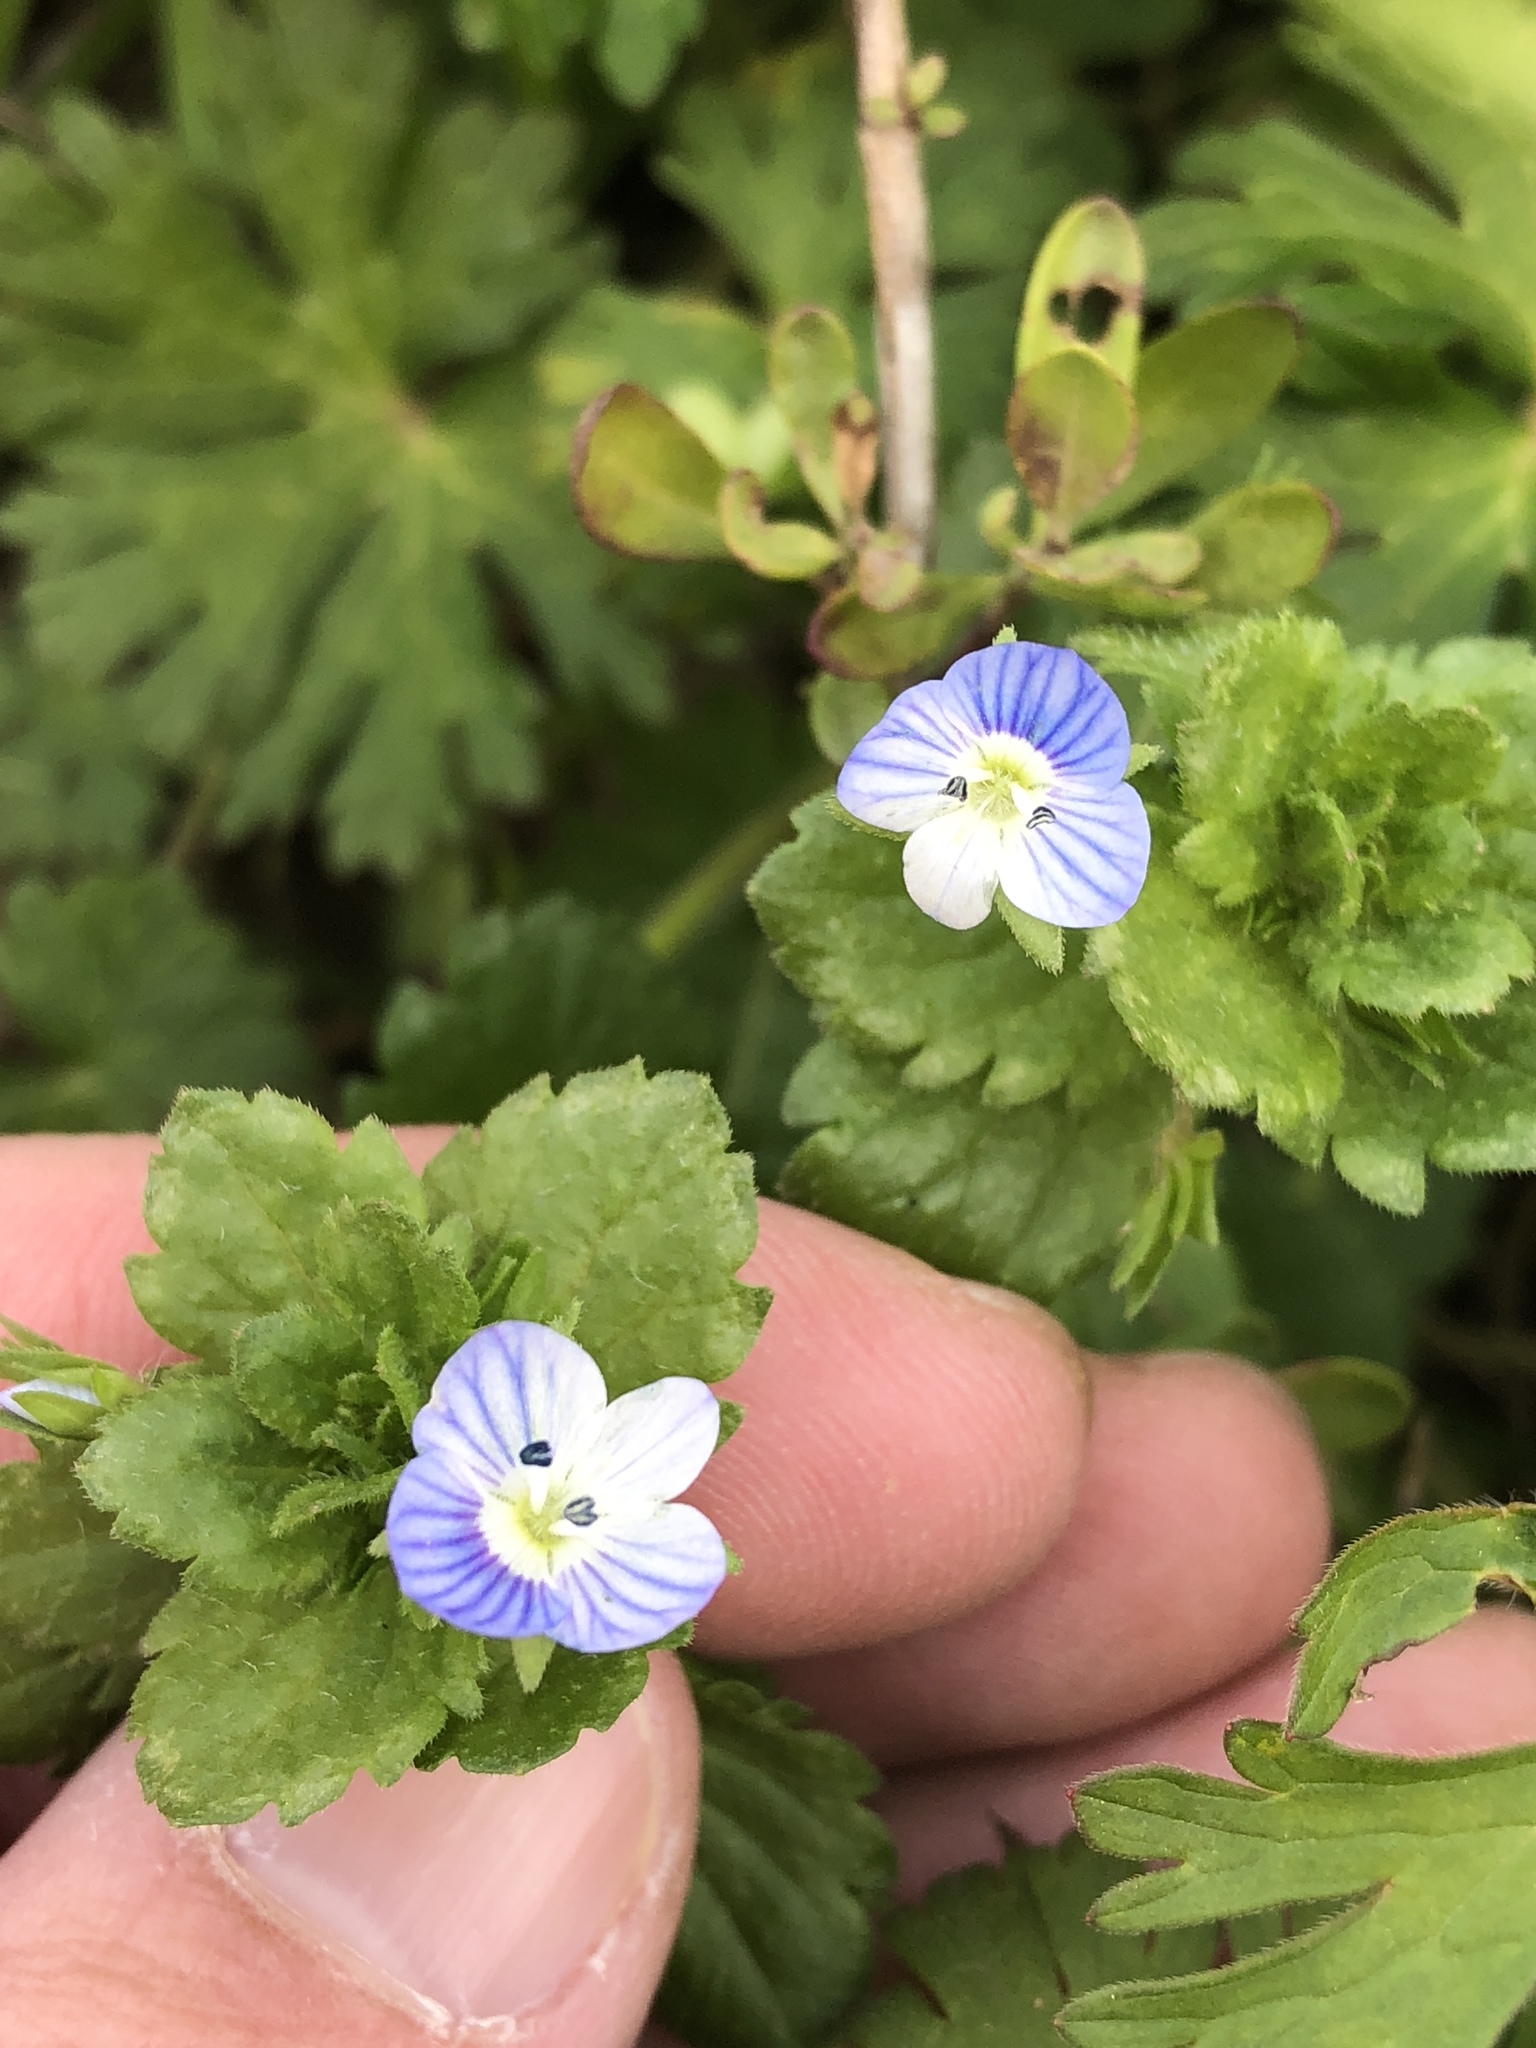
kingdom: Plantae
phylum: Tracheophyta
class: Magnoliopsida
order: Lamiales
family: Plantaginaceae
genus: Veronica
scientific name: Veronica persica
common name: Common field-speedwell
